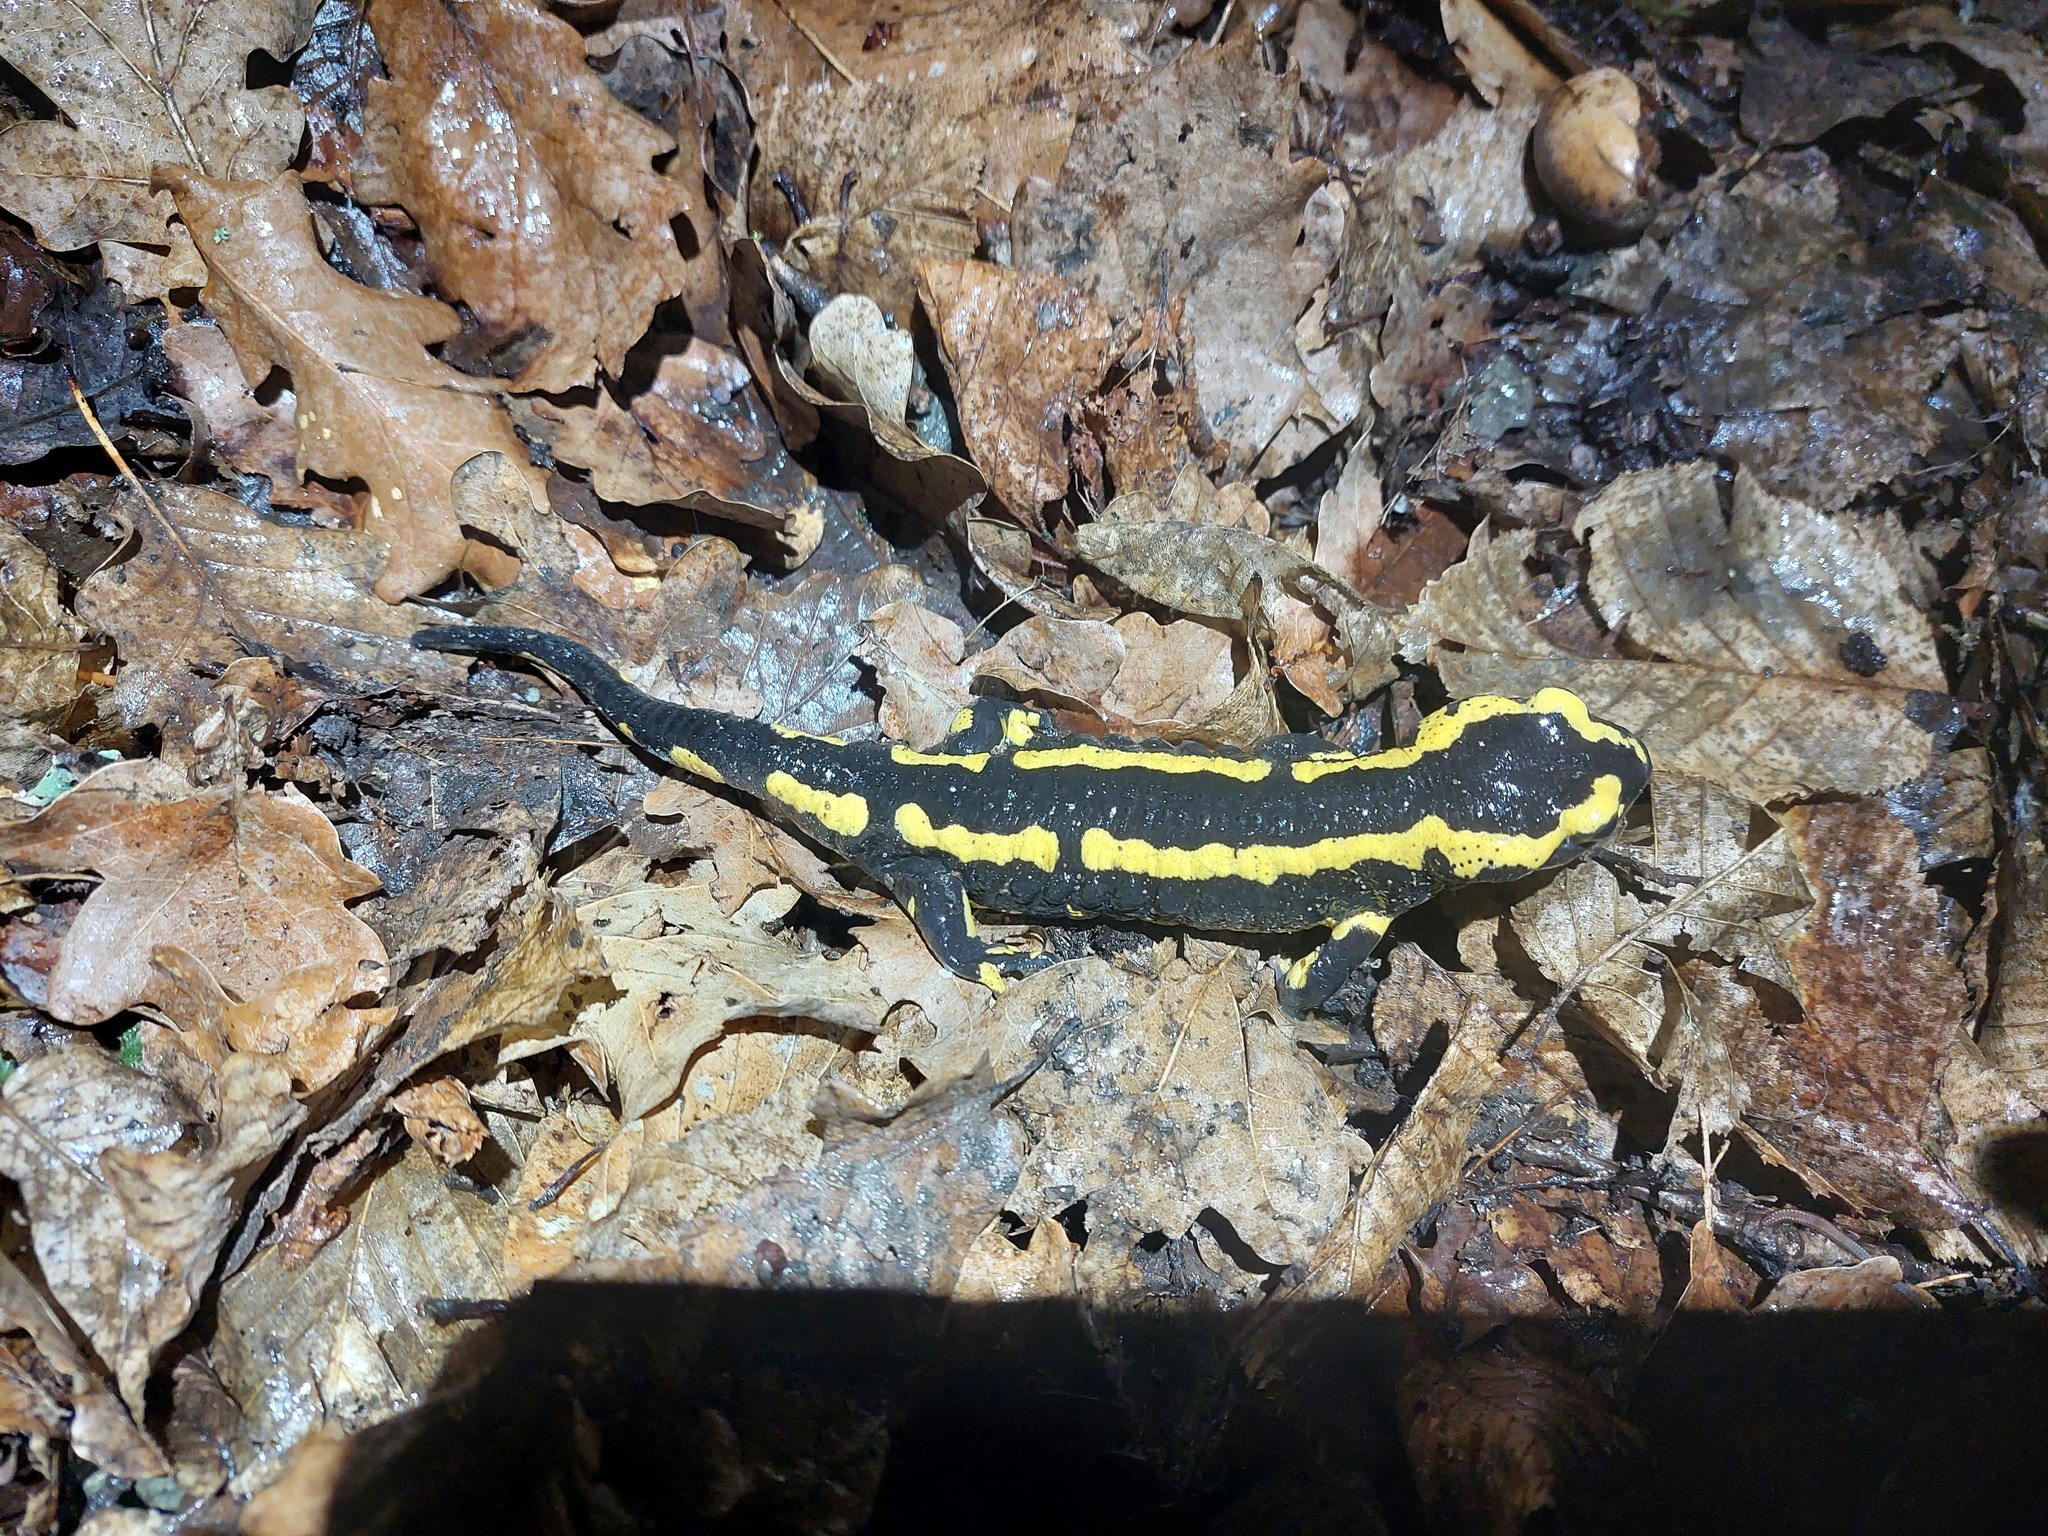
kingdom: Animalia
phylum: Chordata
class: Amphibia
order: Caudata
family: Salamandridae
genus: Salamandra
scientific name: Salamandra salamandra
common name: Fire salamander
